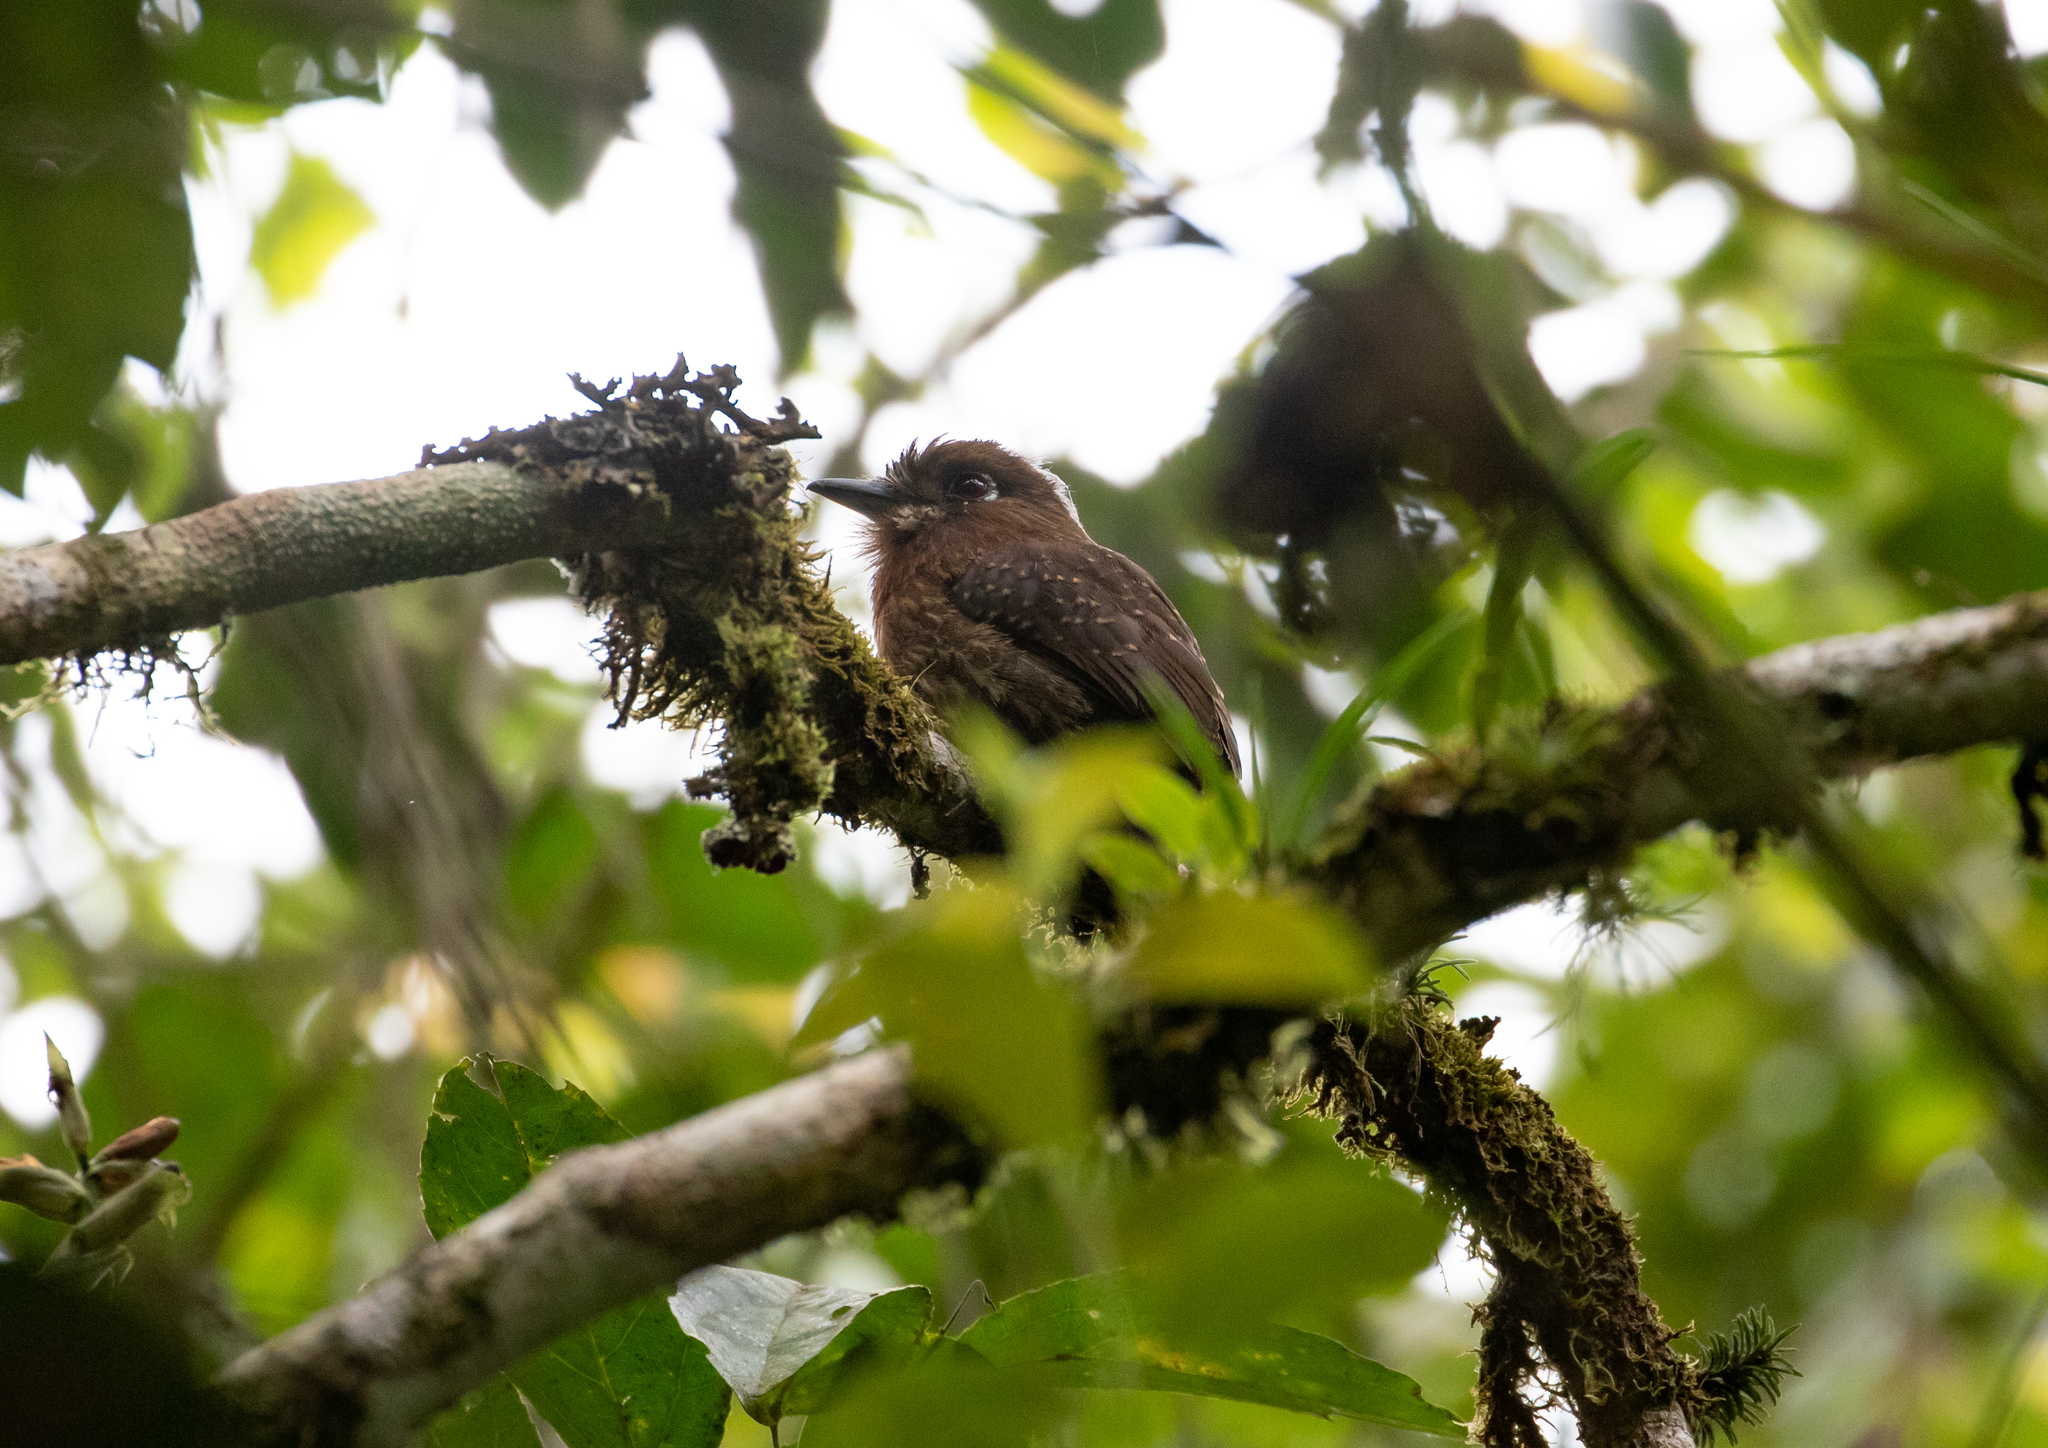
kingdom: Animalia
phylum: Chordata
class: Aves
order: Piciformes
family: Bucconidae
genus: Malacoptila
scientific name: Malacoptila mystacalis
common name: Moustached puffbird
